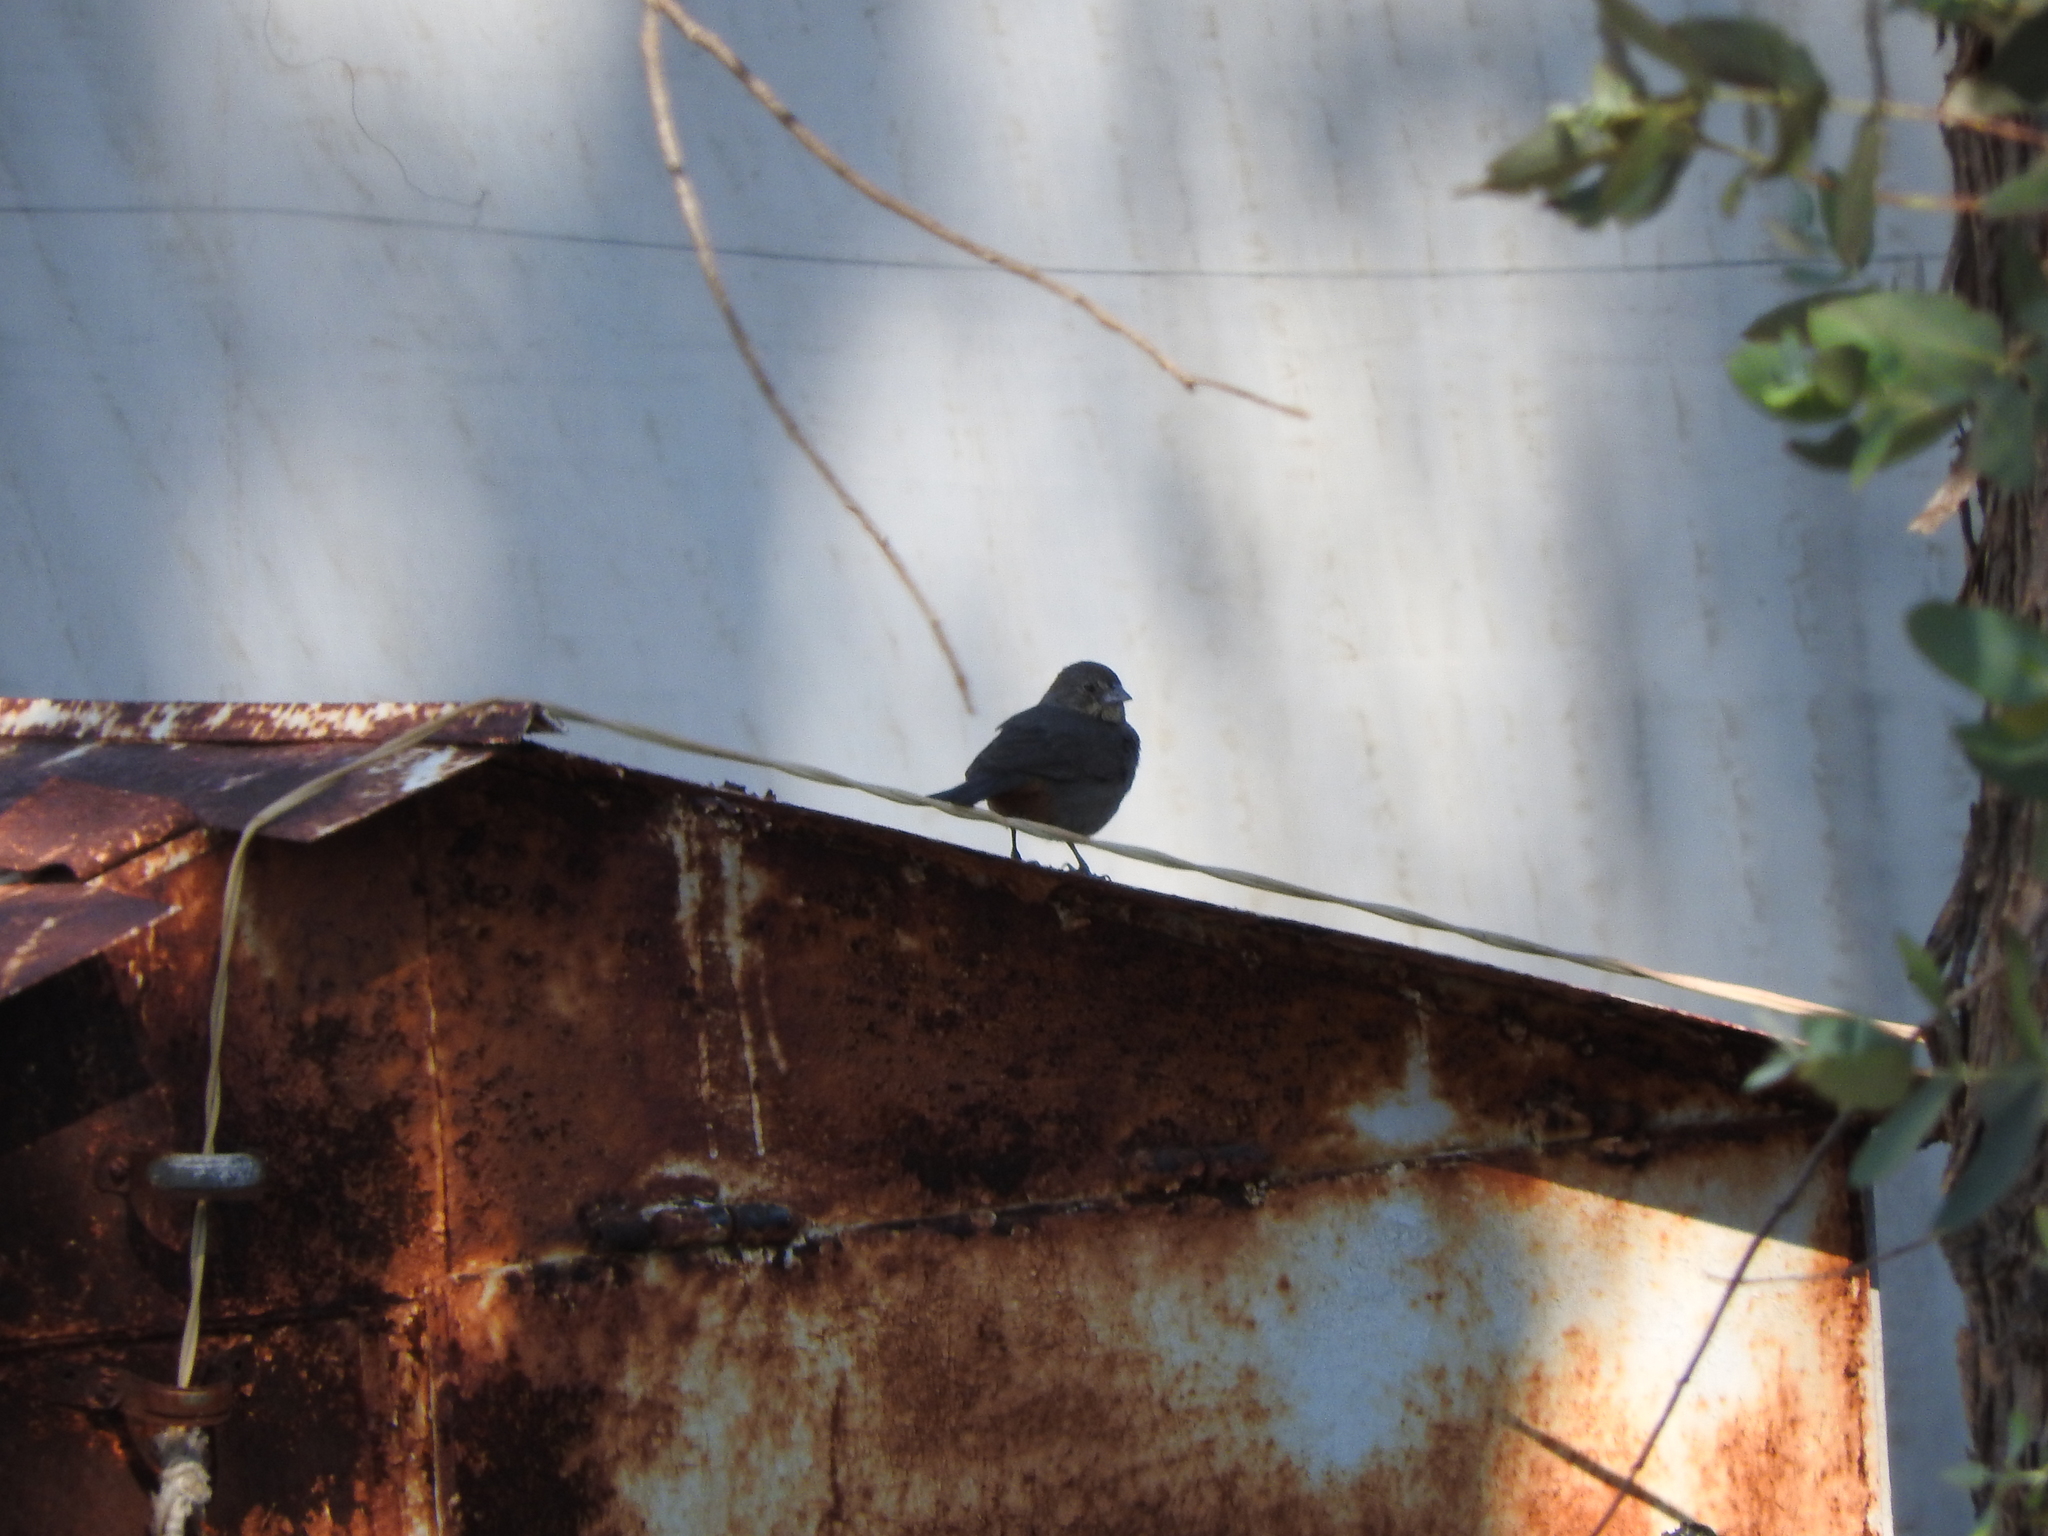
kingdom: Animalia
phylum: Chordata
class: Aves
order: Passeriformes
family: Passerellidae
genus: Melozone
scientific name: Melozone fusca
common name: Canyon towhee
